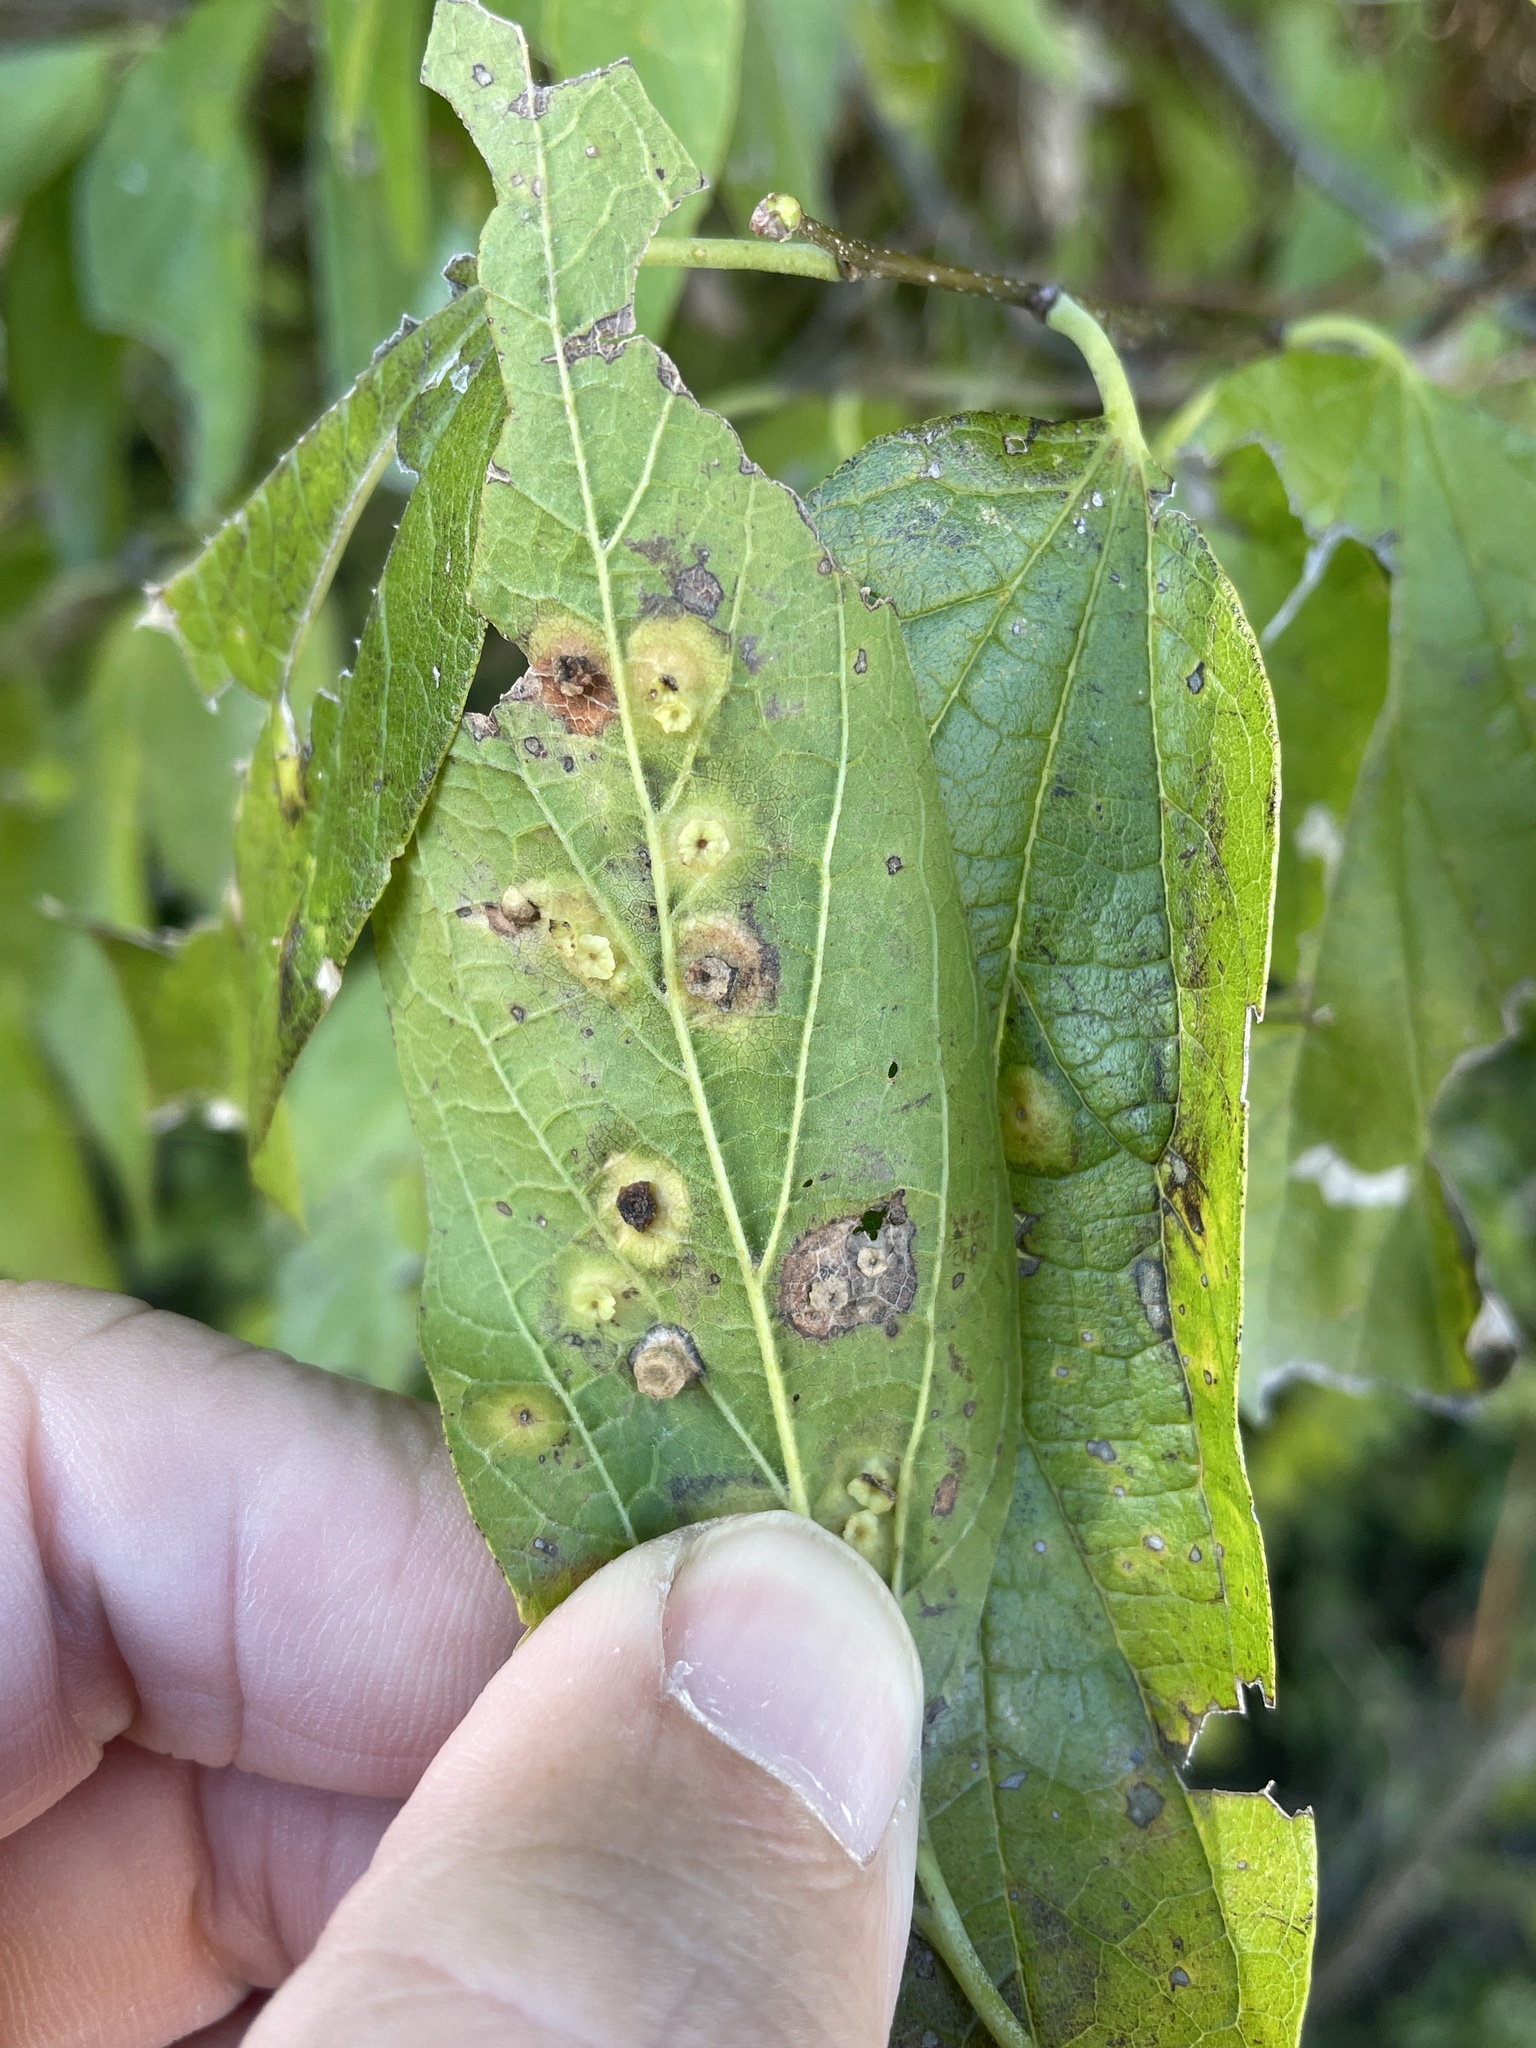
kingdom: Animalia
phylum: Arthropoda
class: Insecta
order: Hemiptera
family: Aphalaridae
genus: Pachypsylla
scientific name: Pachypsylla celtidisasterisca
